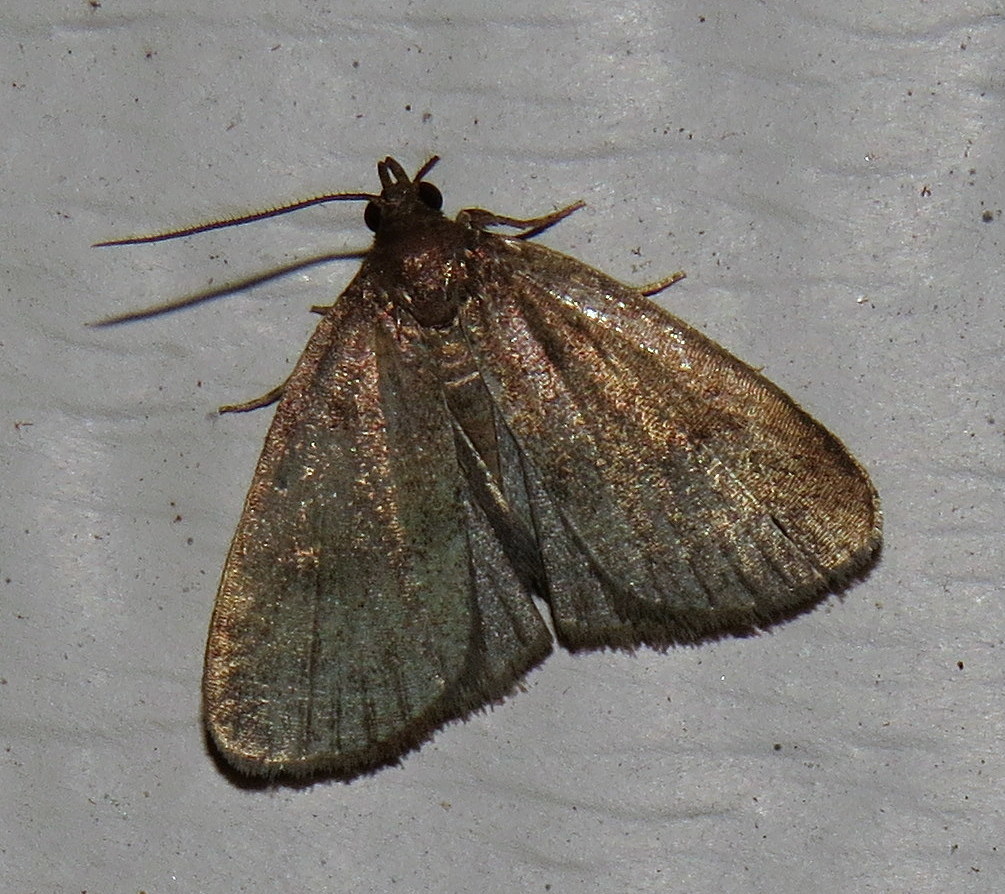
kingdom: Animalia
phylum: Arthropoda
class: Insecta
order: Lepidoptera
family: Erebidae
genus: Idia
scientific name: Idia rotundalis
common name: Rotund idia moth
